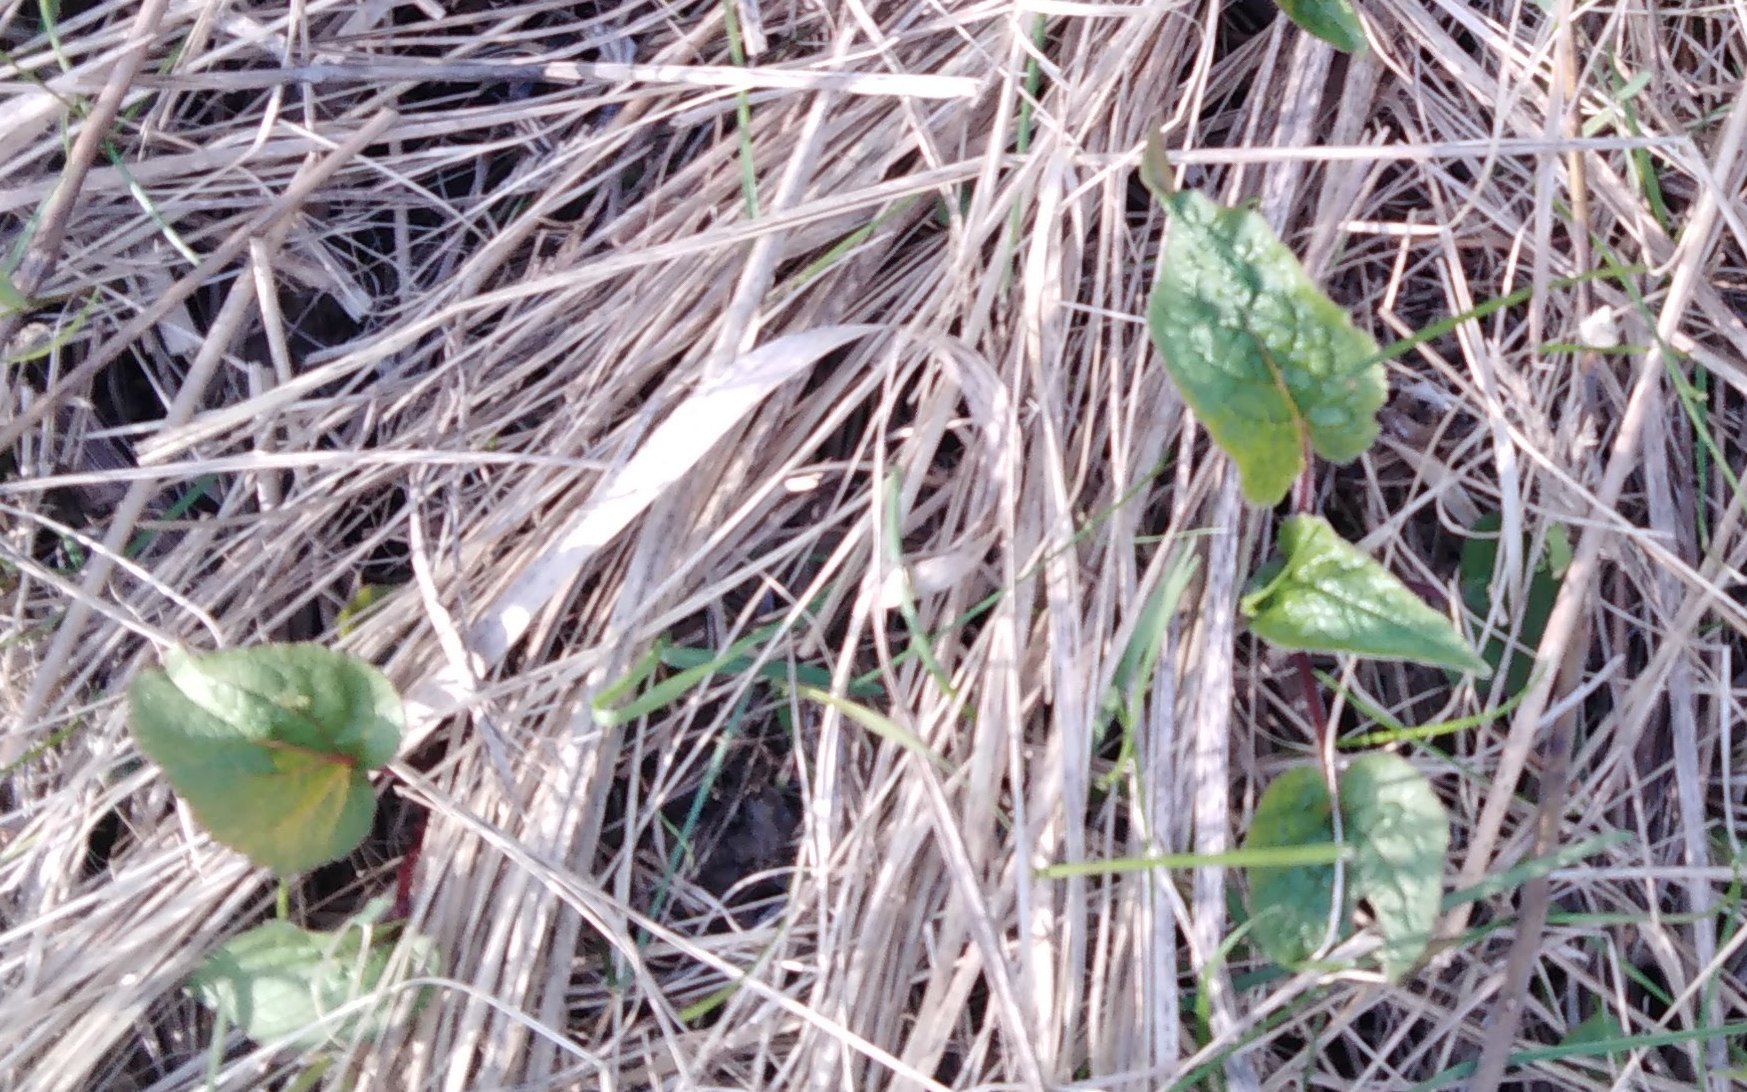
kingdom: Plantae
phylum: Tracheophyta
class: Magnoliopsida
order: Asterales
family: Campanulaceae
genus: Campanula
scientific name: Campanula rapunculoides
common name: Creeping bellflower
